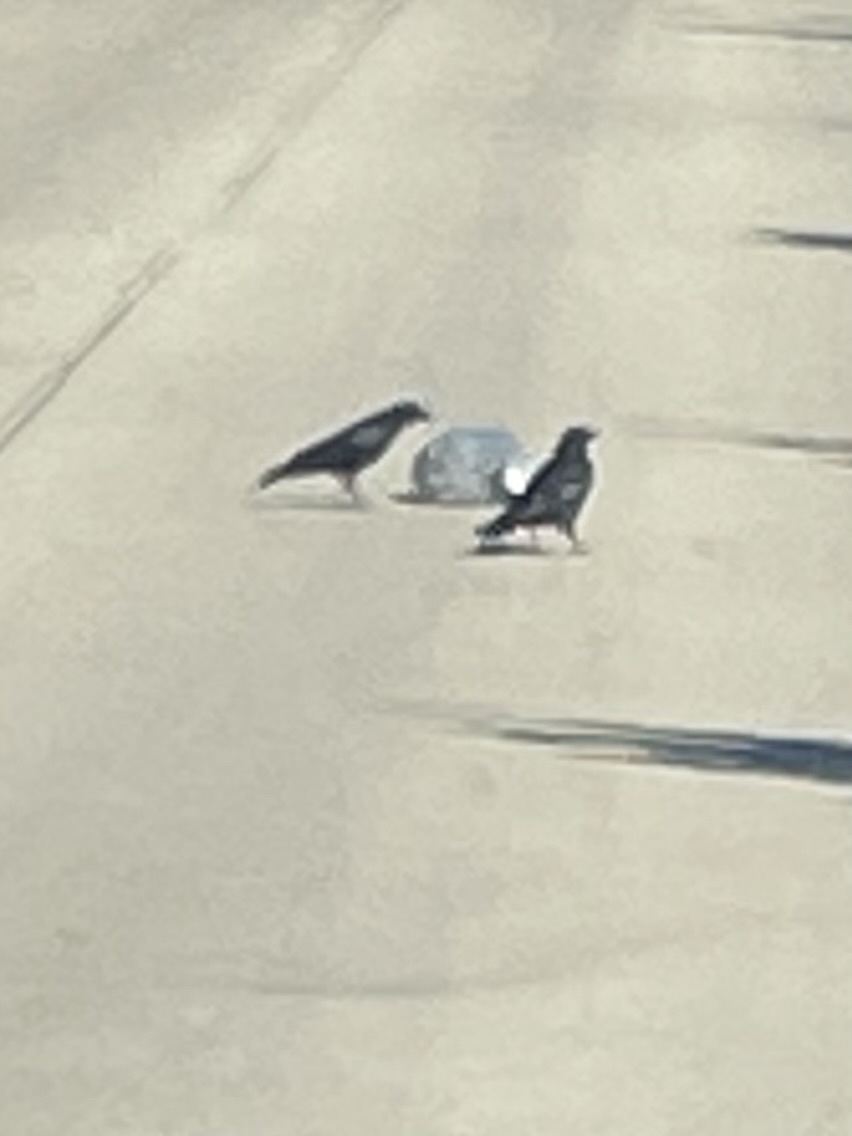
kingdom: Animalia
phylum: Chordata
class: Aves
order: Passeriformes
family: Corvidae
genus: Corvus
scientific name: Corvus brachyrhynchos
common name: American crow
